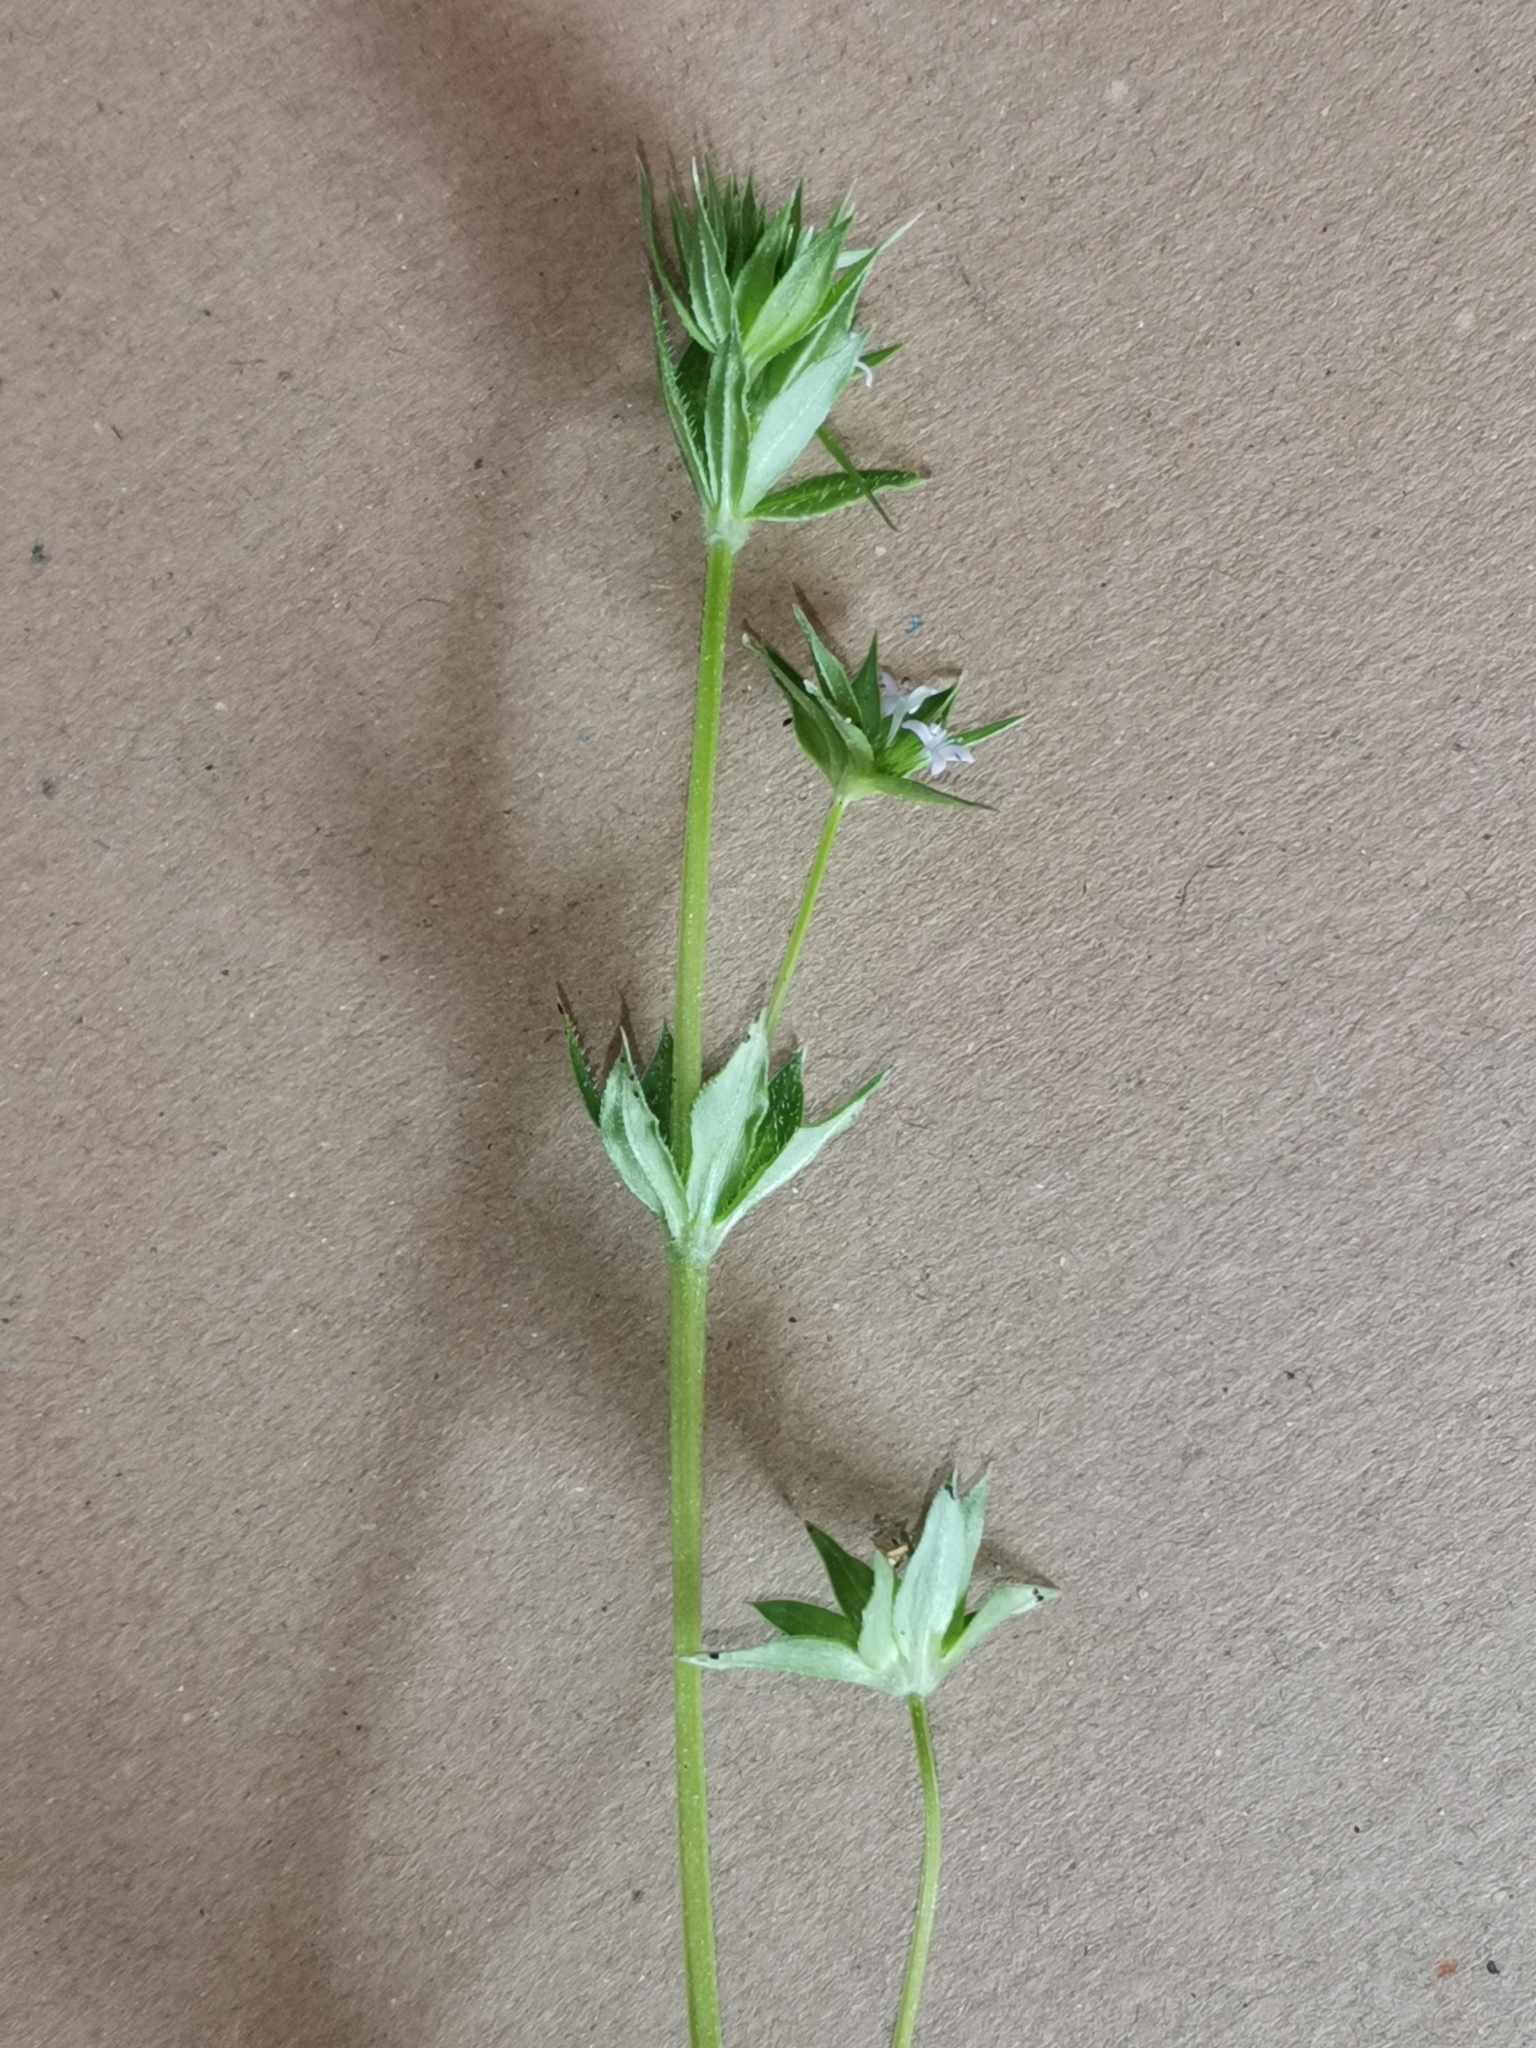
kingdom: Plantae
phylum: Tracheophyta
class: Magnoliopsida
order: Gentianales
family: Rubiaceae
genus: Sherardia
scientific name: Sherardia arvensis
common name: Field madder
